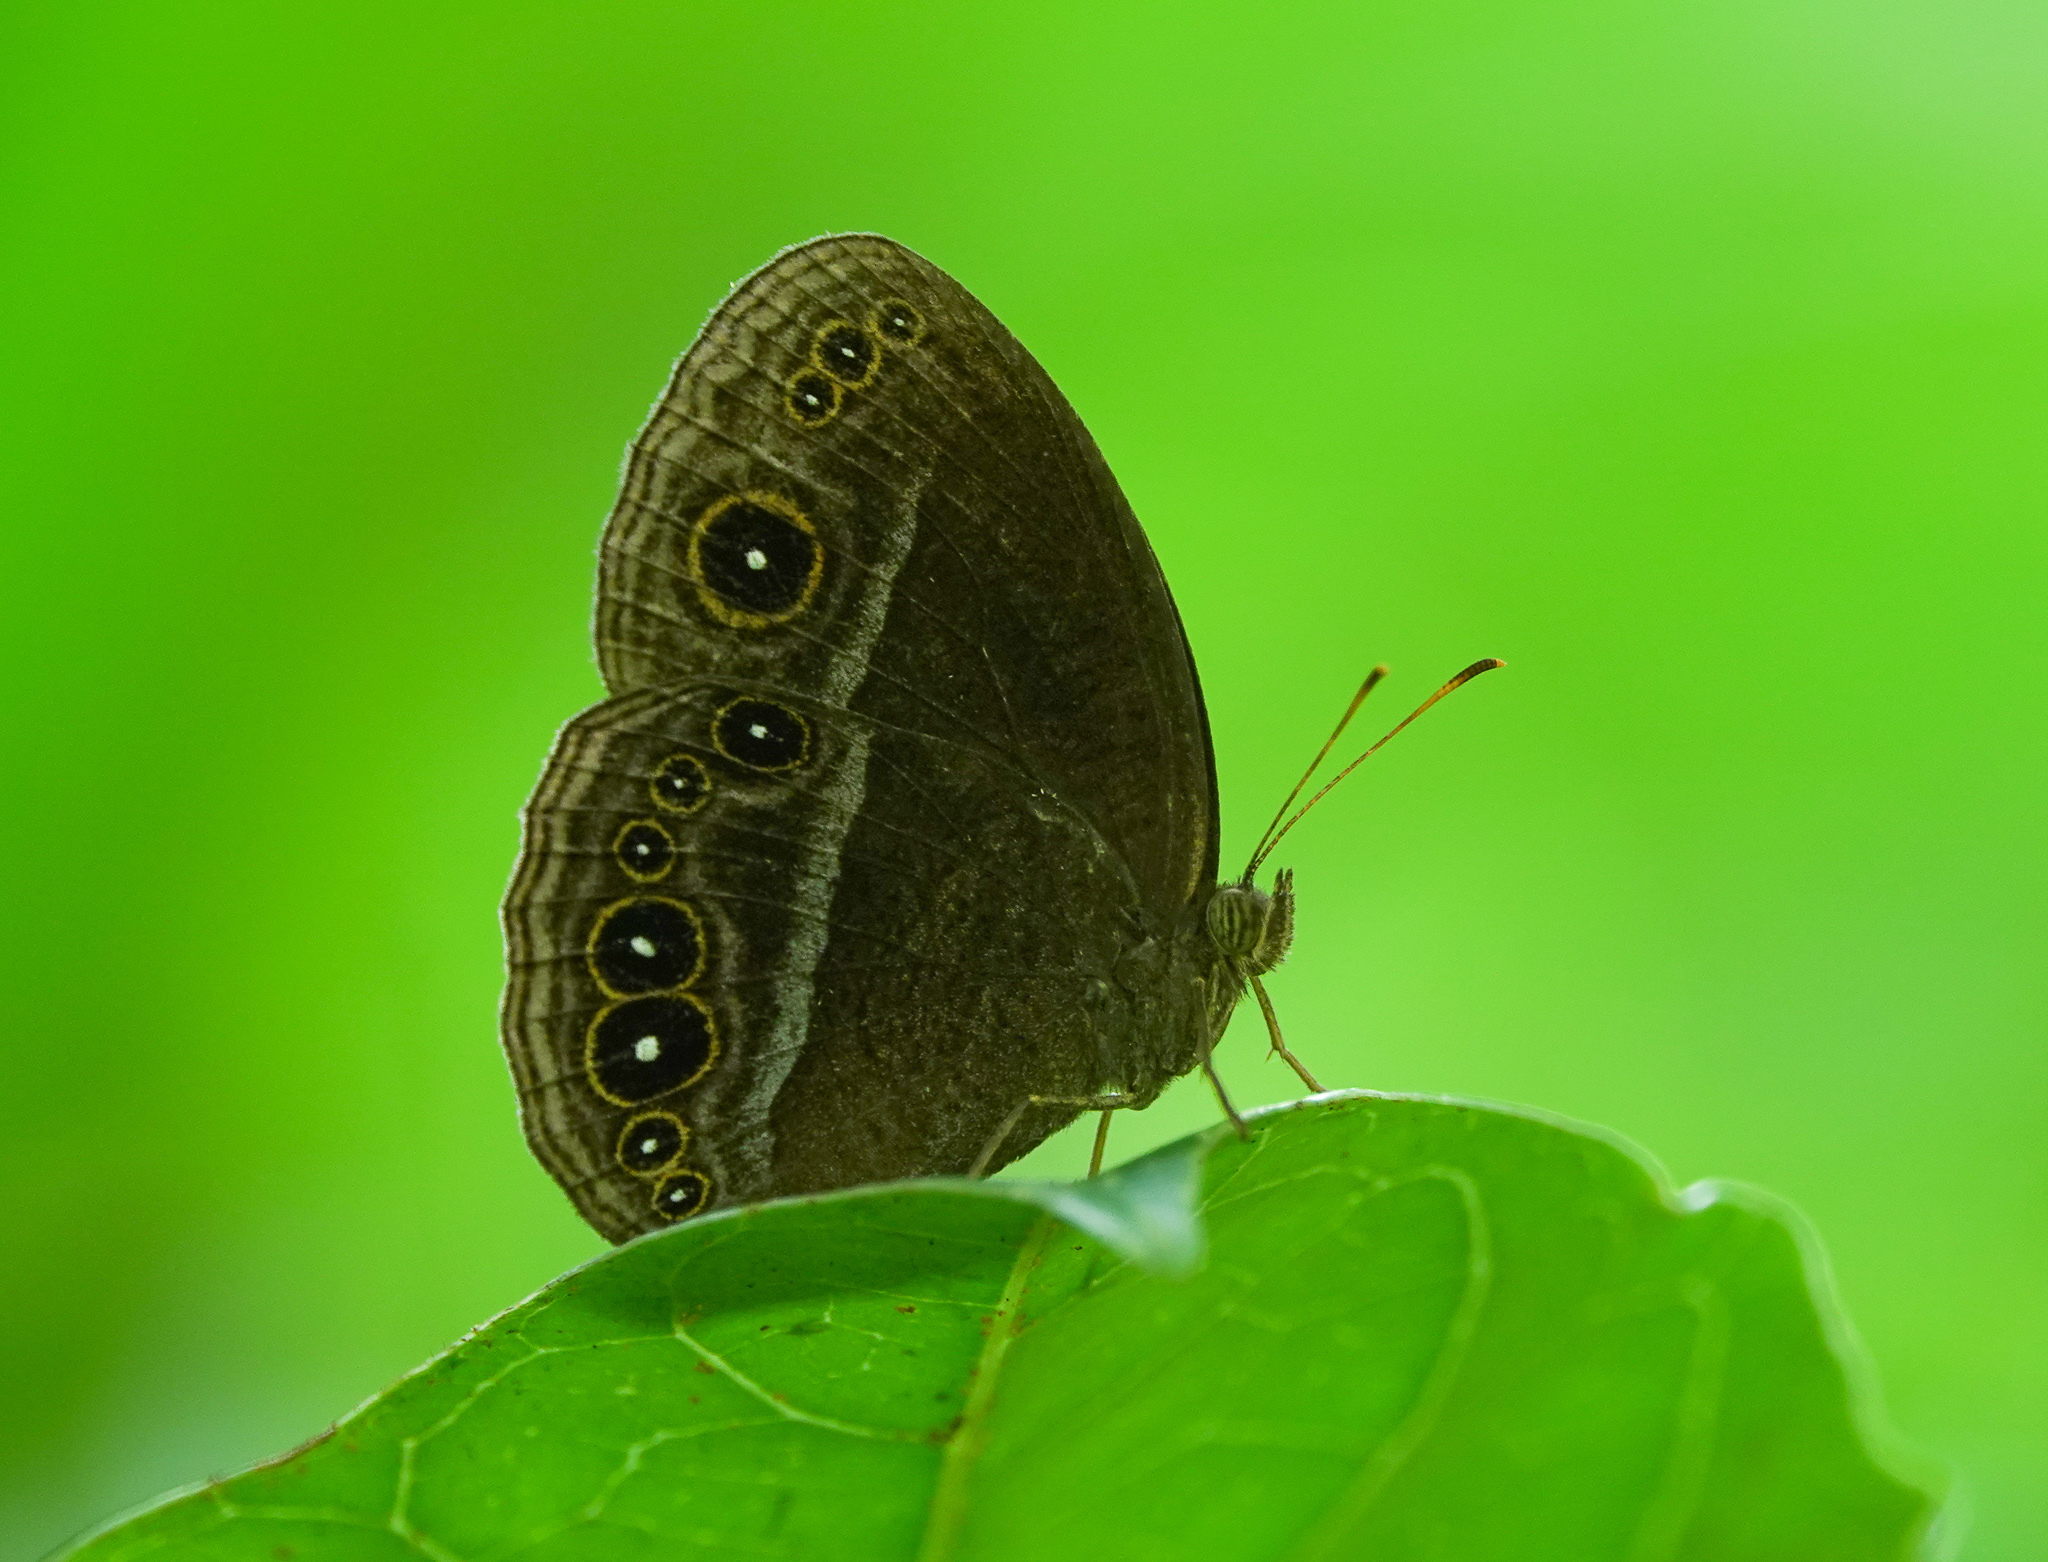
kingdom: Animalia
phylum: Arthropoda
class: Insecta
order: Lepidoptera
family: Nymphalidae
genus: Mycalesis
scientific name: Mycalesis Telinga inopia
